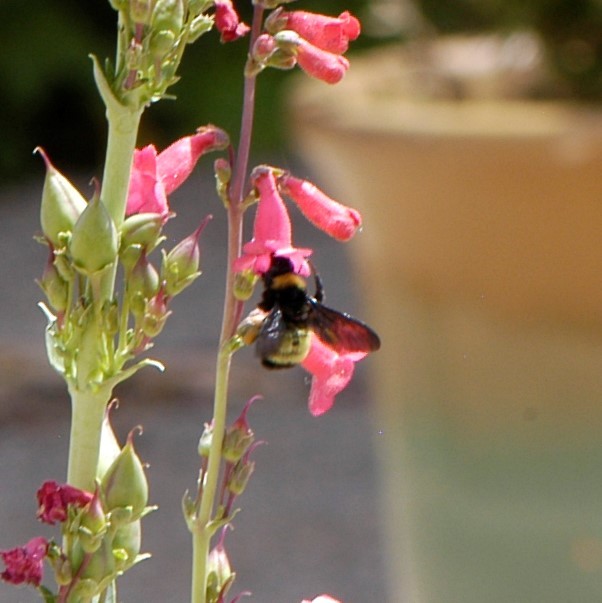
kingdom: Animalia
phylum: Arthropoda
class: Insecta
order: Hymenoptera
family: Apidae
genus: Bombus
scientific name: Bombus pensylvanicus
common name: Bumble bee
